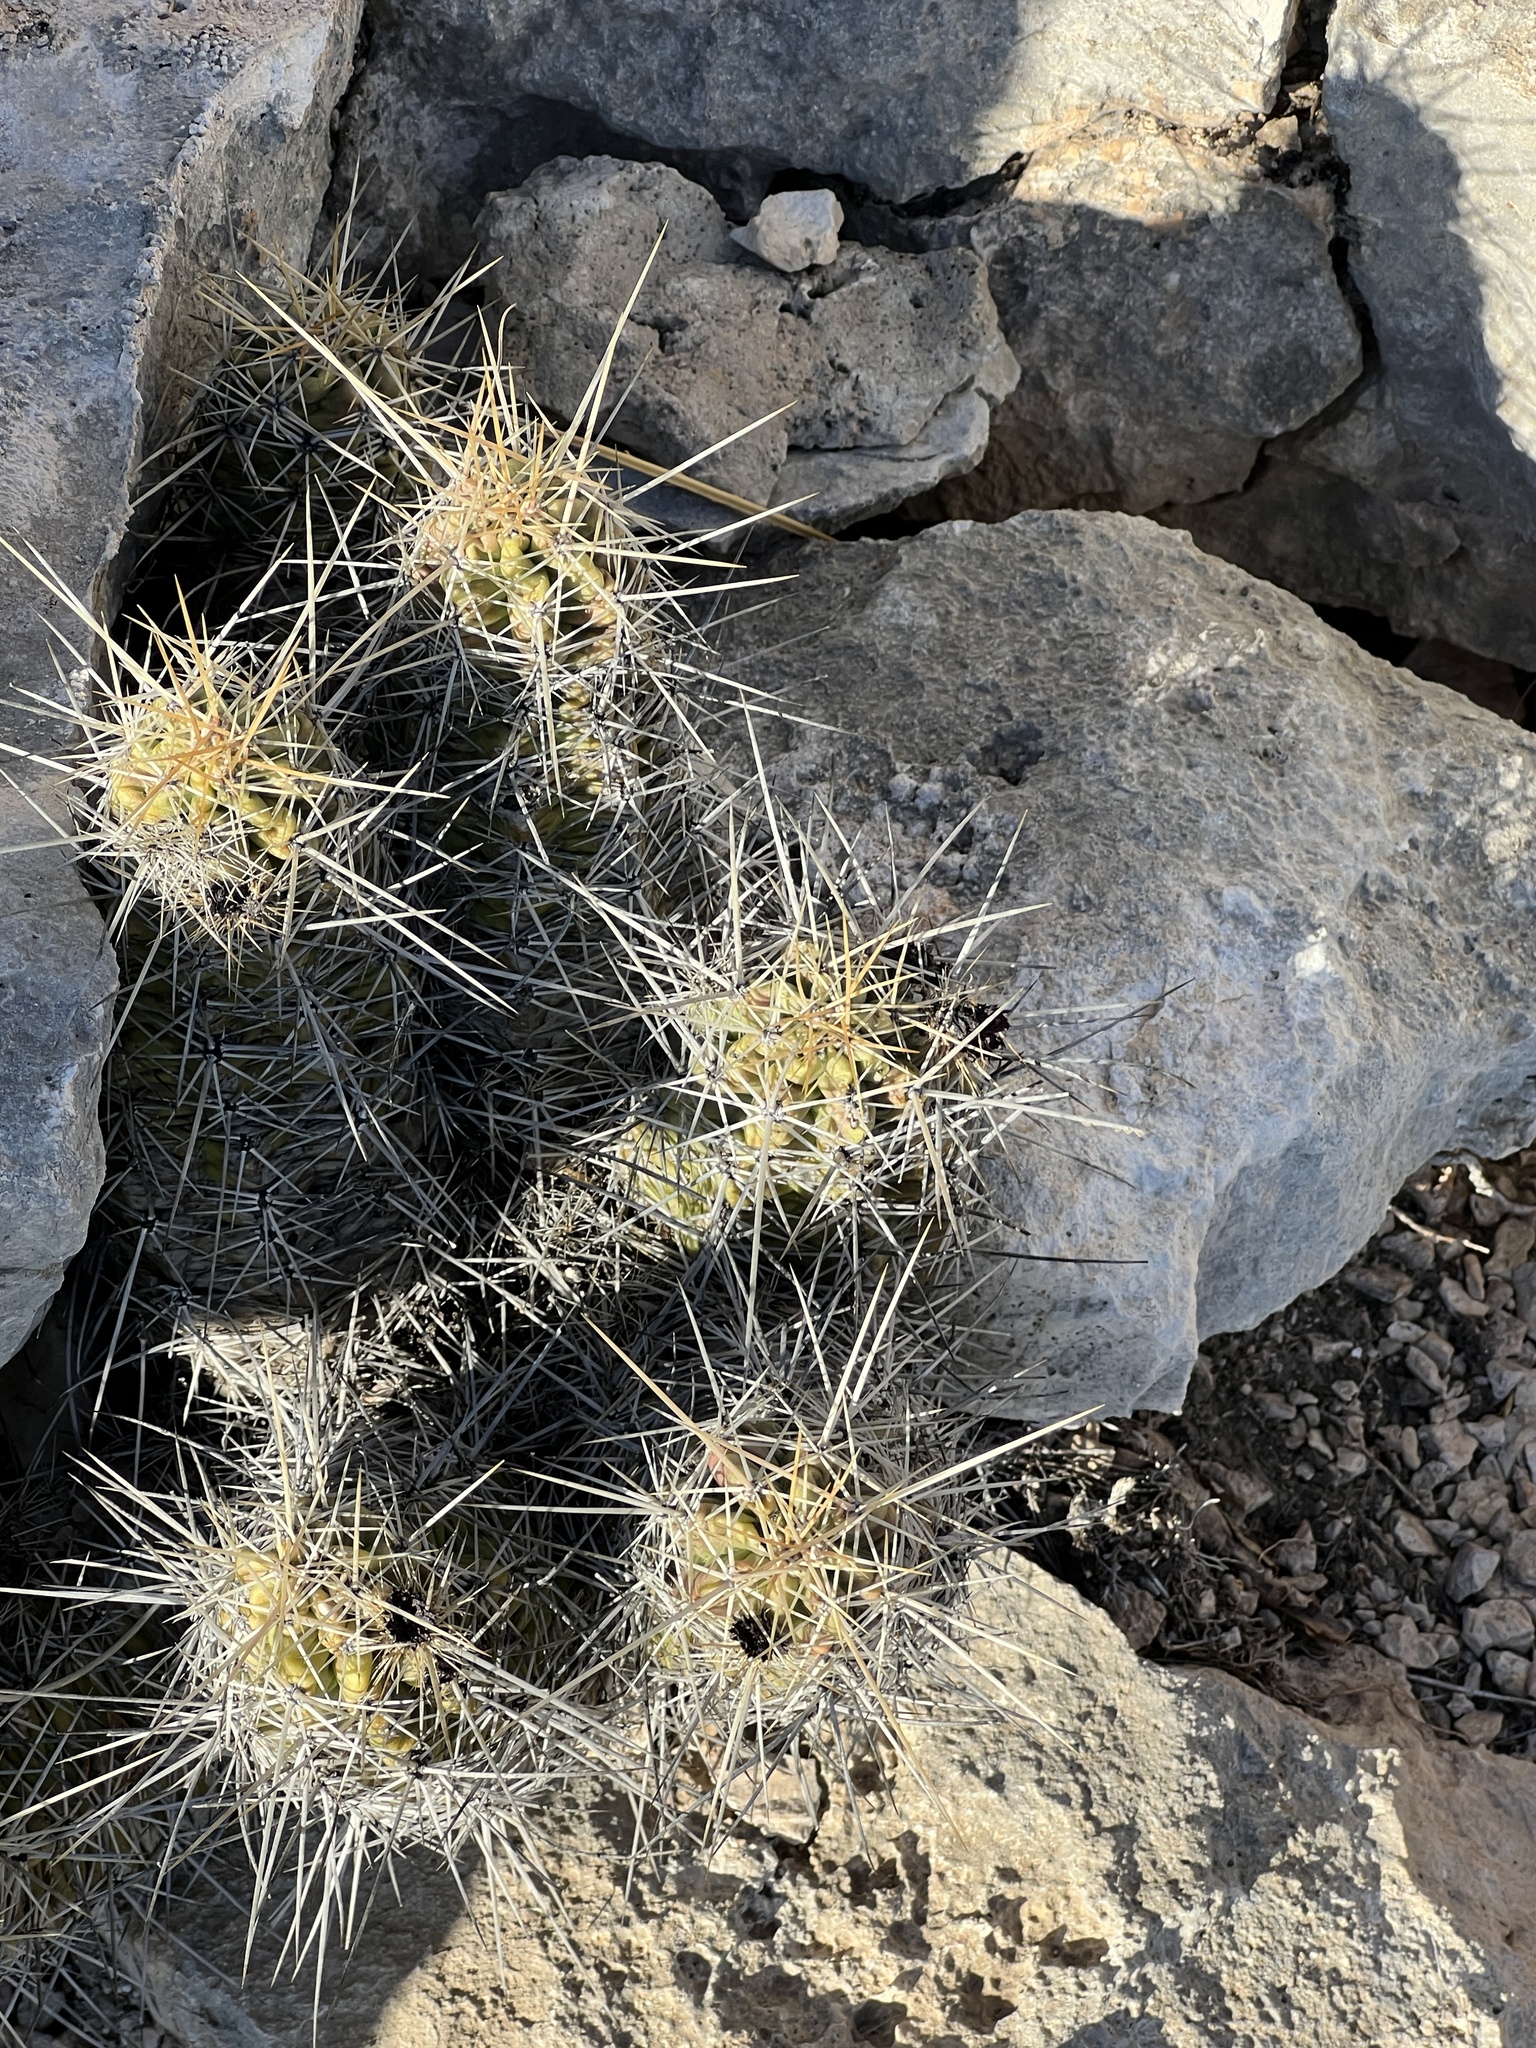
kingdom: Plantae
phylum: Tracheophyta
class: Magnoliopsida
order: Caryophyllales
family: Cactaceae
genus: Echinocereus
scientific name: Echinocereus enneacanthus
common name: Pitaya
